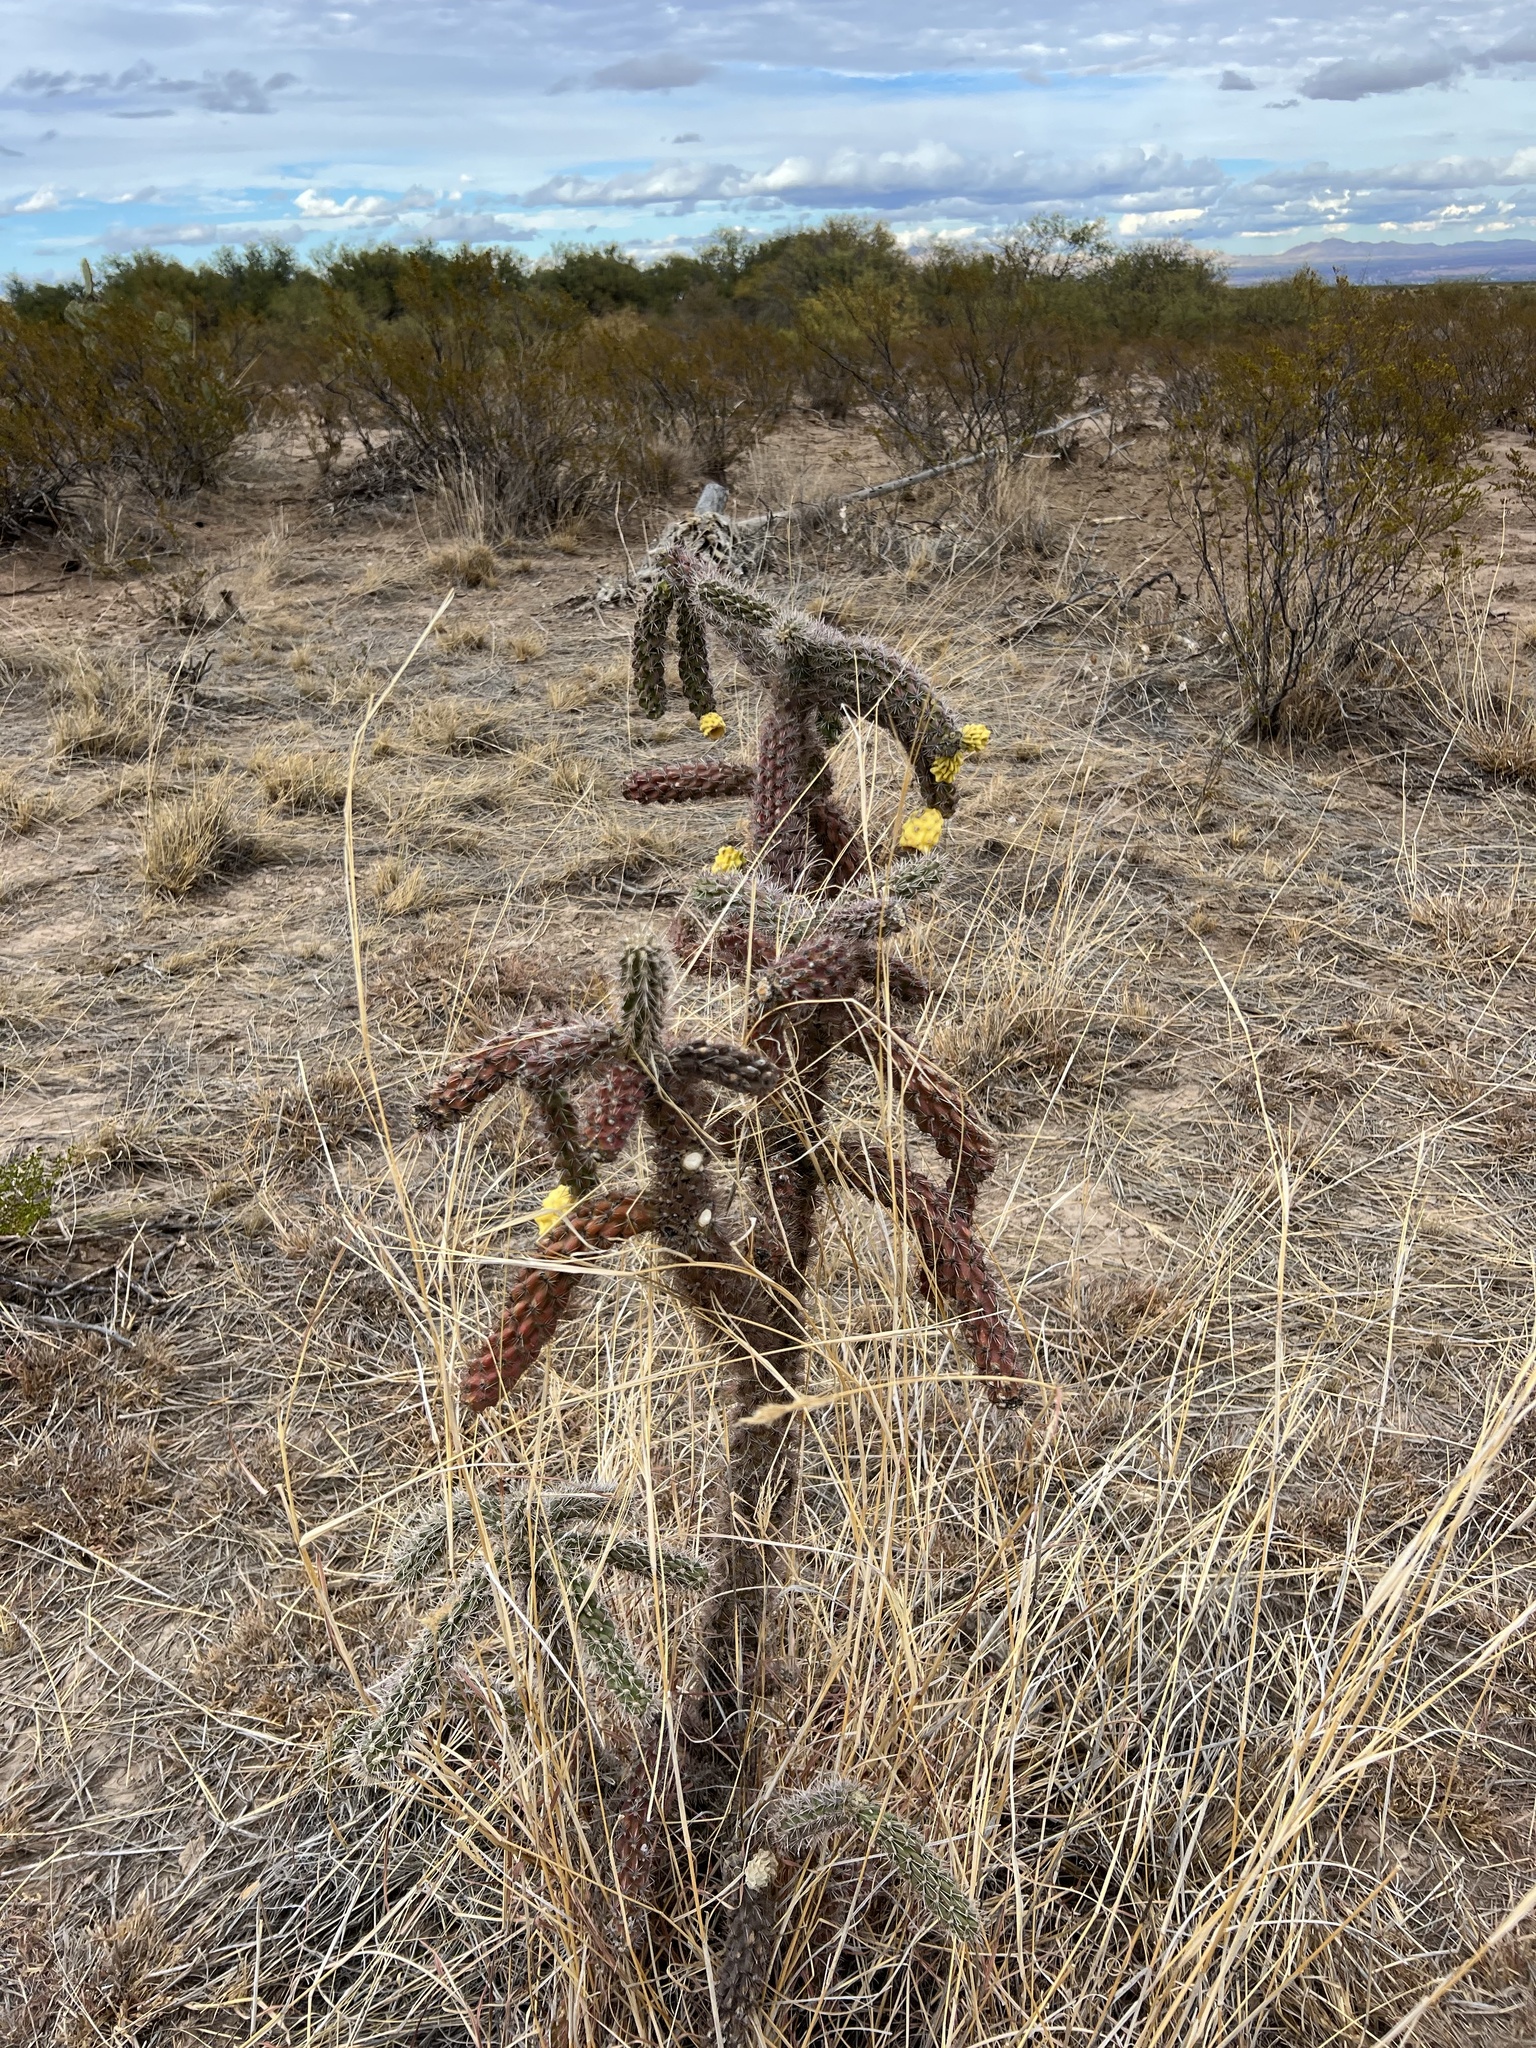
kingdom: Plantae
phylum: Tracheophyta
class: Magnoliopsida
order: Caryophyllales
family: Cactaceae
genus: Cylindropuntia
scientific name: Cylindropuntia imbricata
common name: Candelabrum cactus
